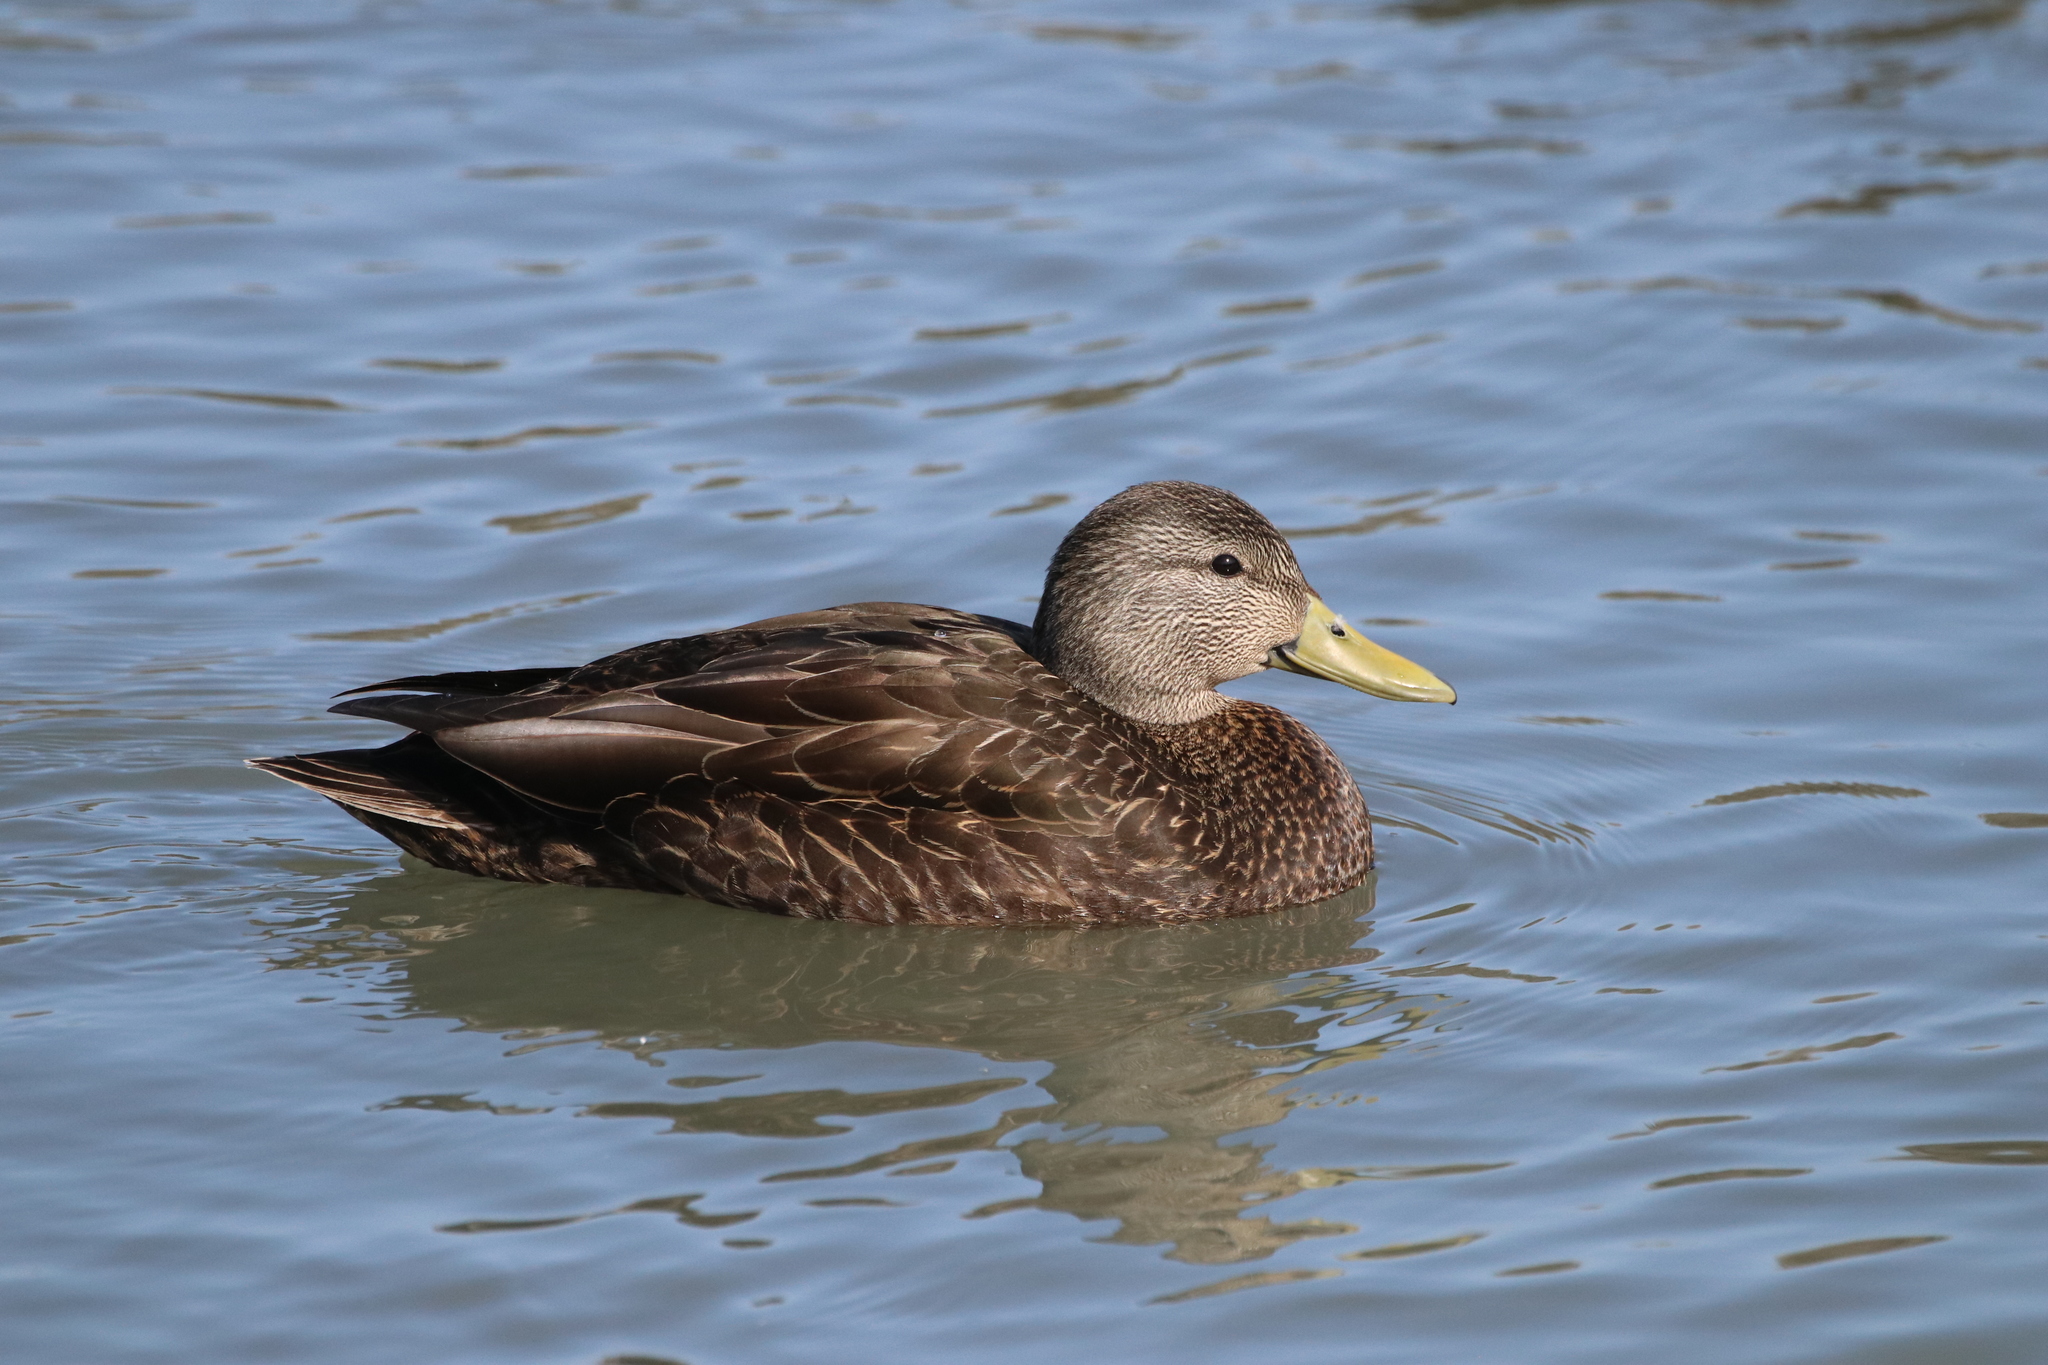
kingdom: Animalia
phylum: Chordata
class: Aves
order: Anseriformes
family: Anatidae
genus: Anas
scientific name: Anas rubripes
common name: American black duck
